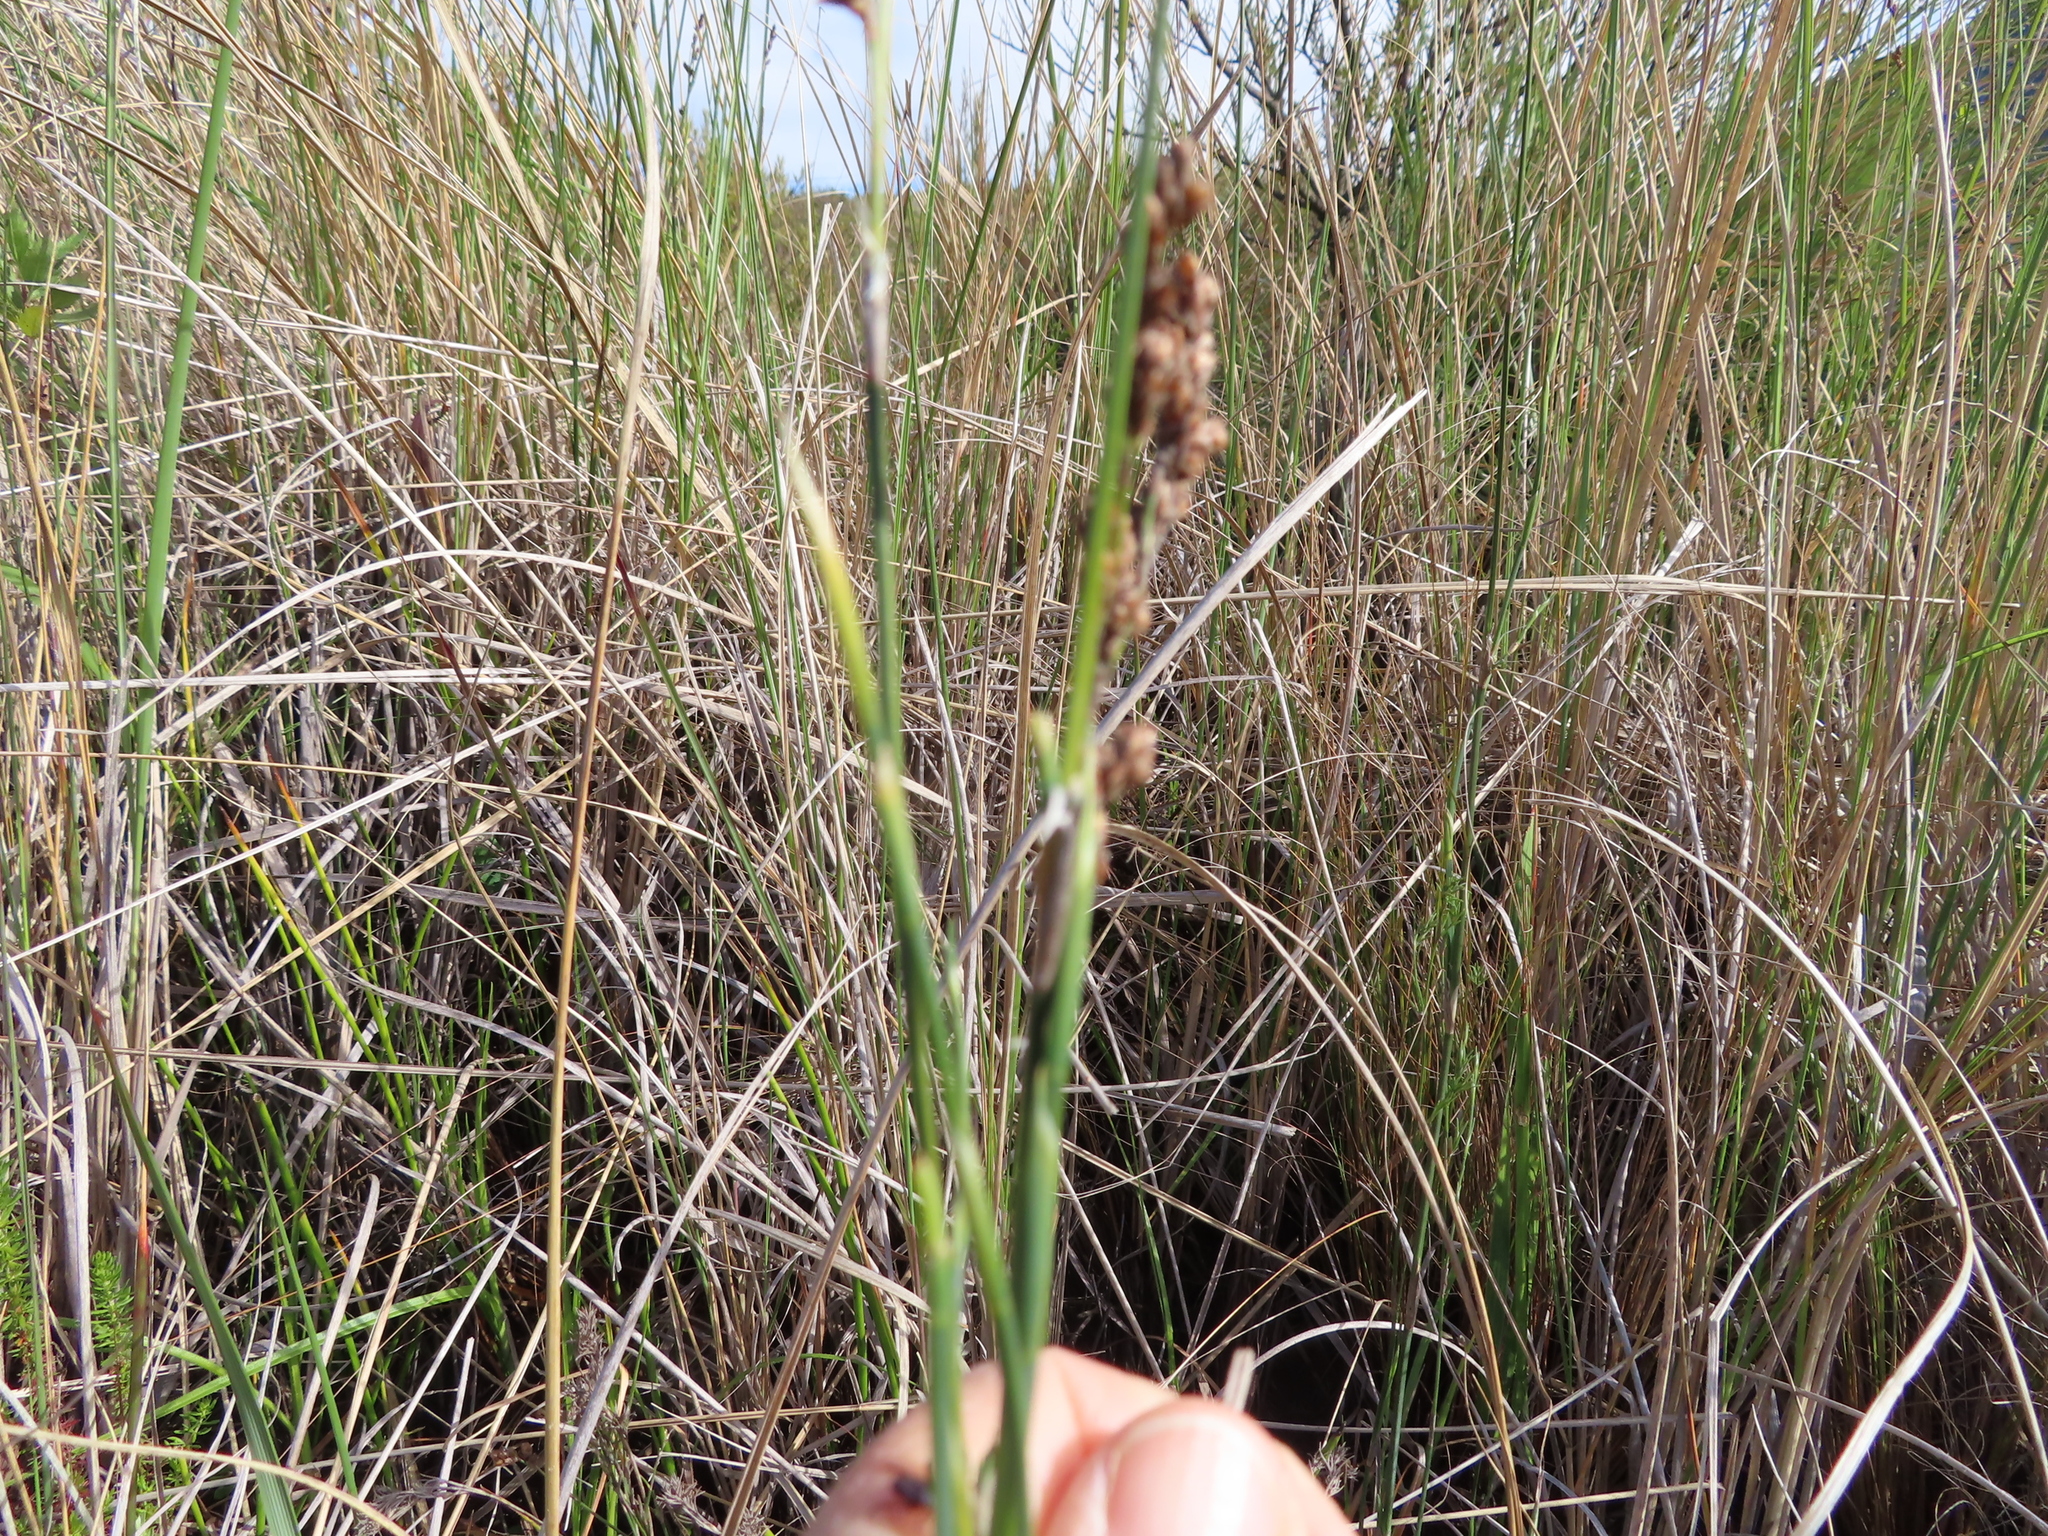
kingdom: Plantae
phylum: Tracheophyta
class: Liliopsida
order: Poales
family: Restionaceae
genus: Restio
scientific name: Restio quadratus
